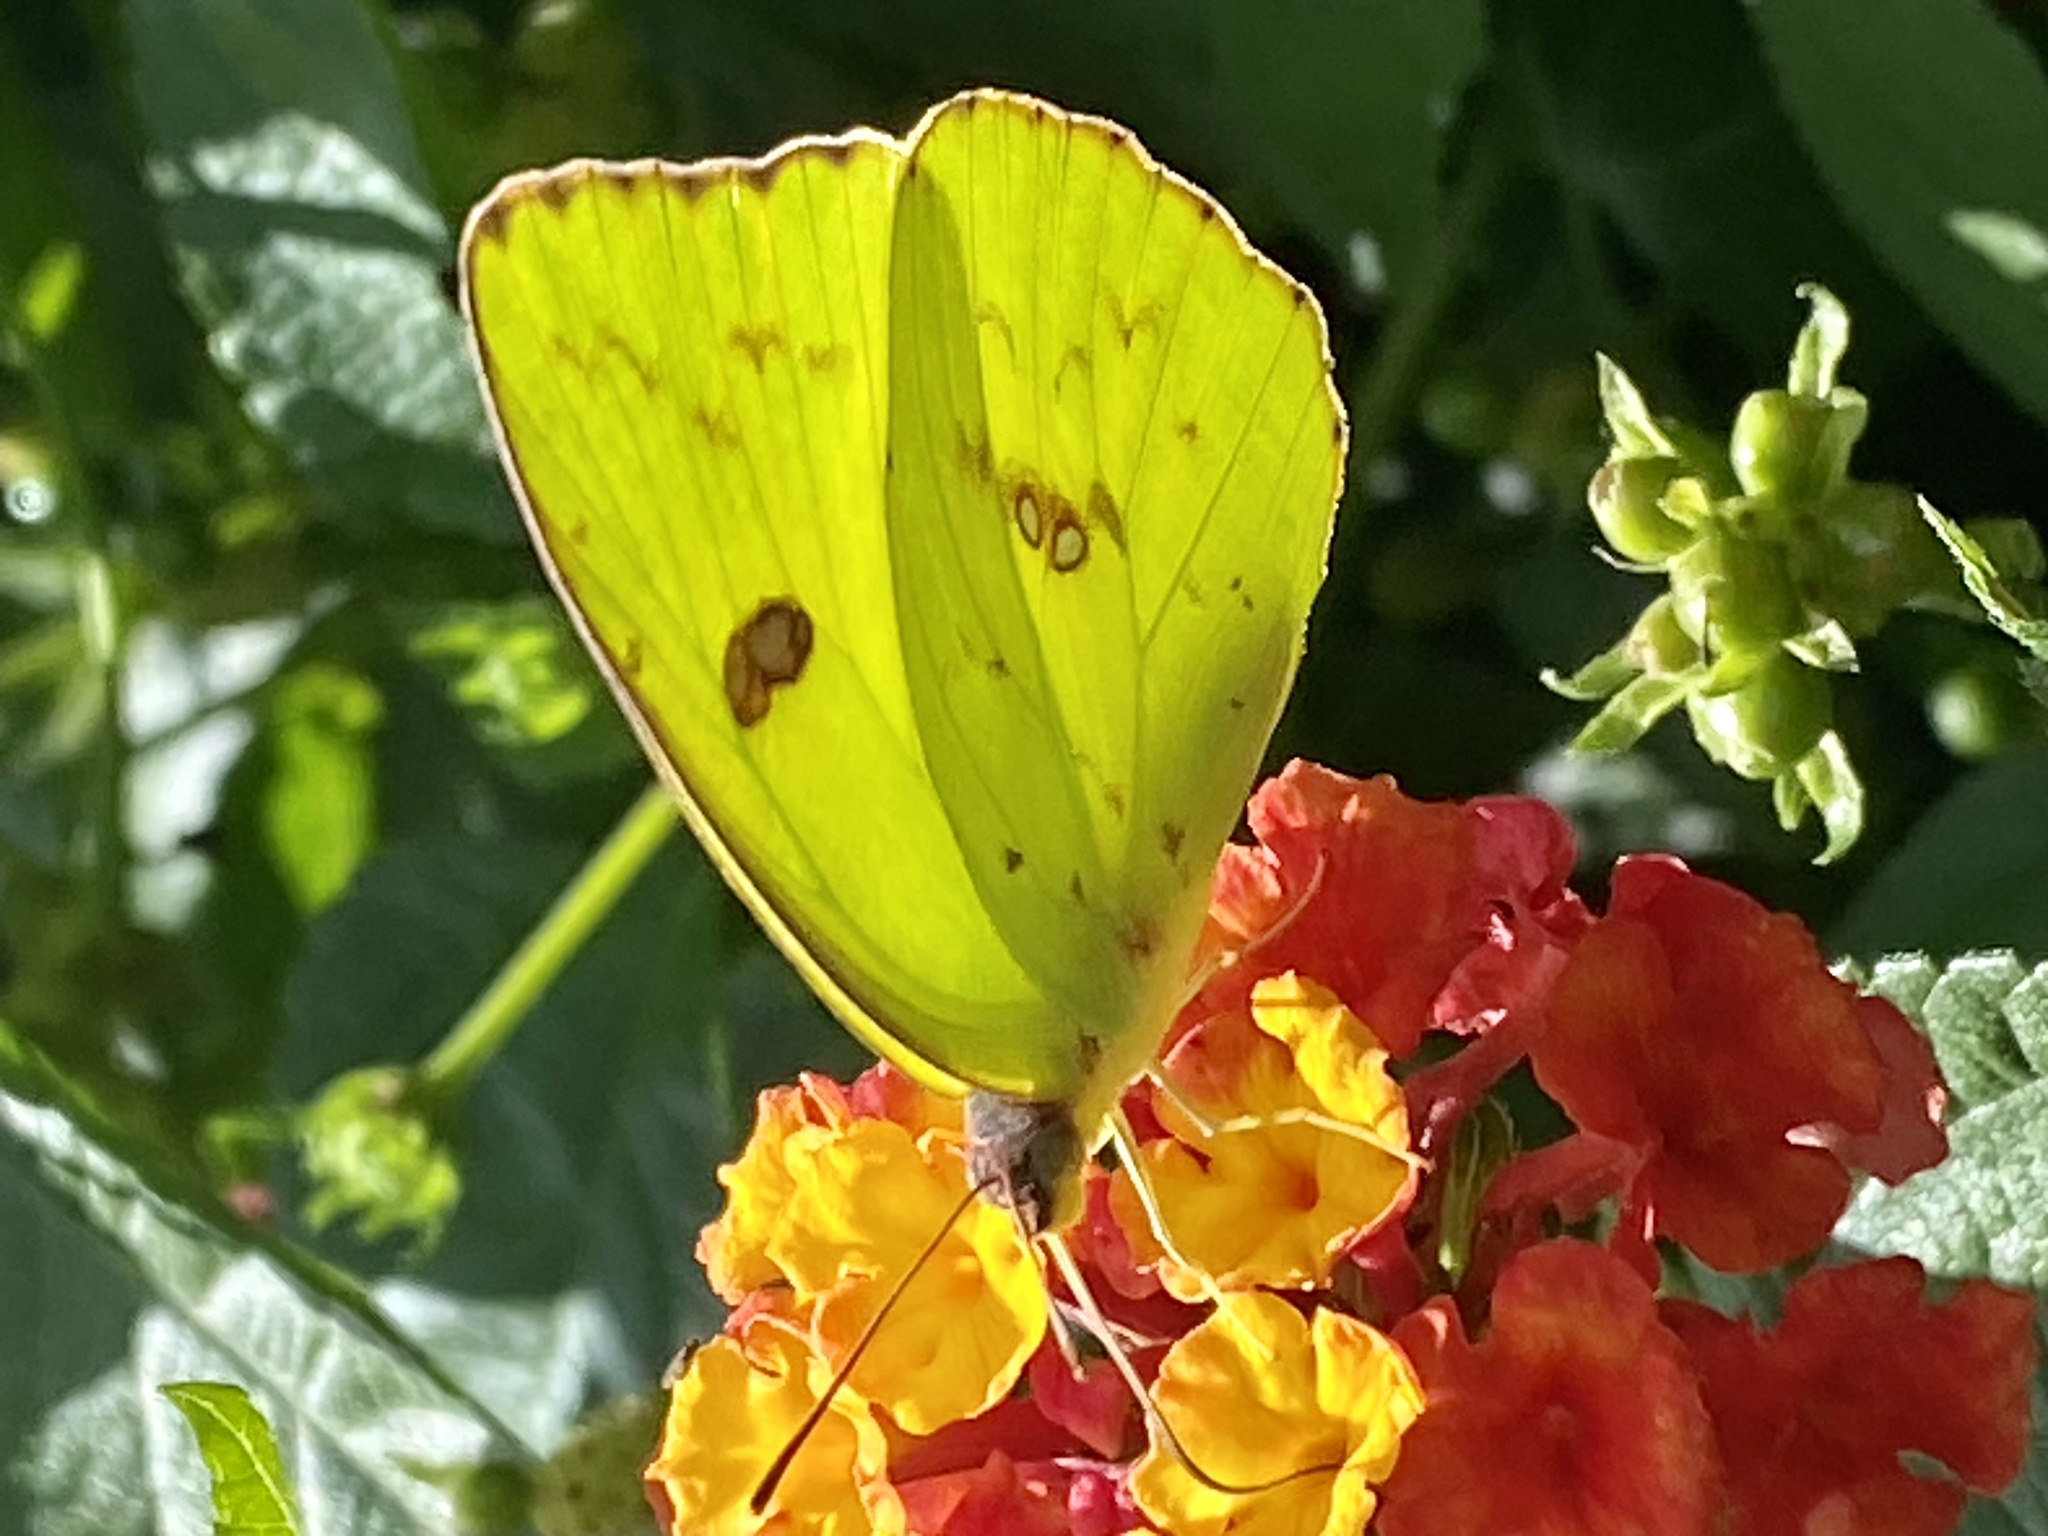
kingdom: Animalia
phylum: Arthropoda
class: Insecta
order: Lepidoptera
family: Pieridae
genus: Phoebis
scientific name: Phoebis sennae
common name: Cloudless sulphur
